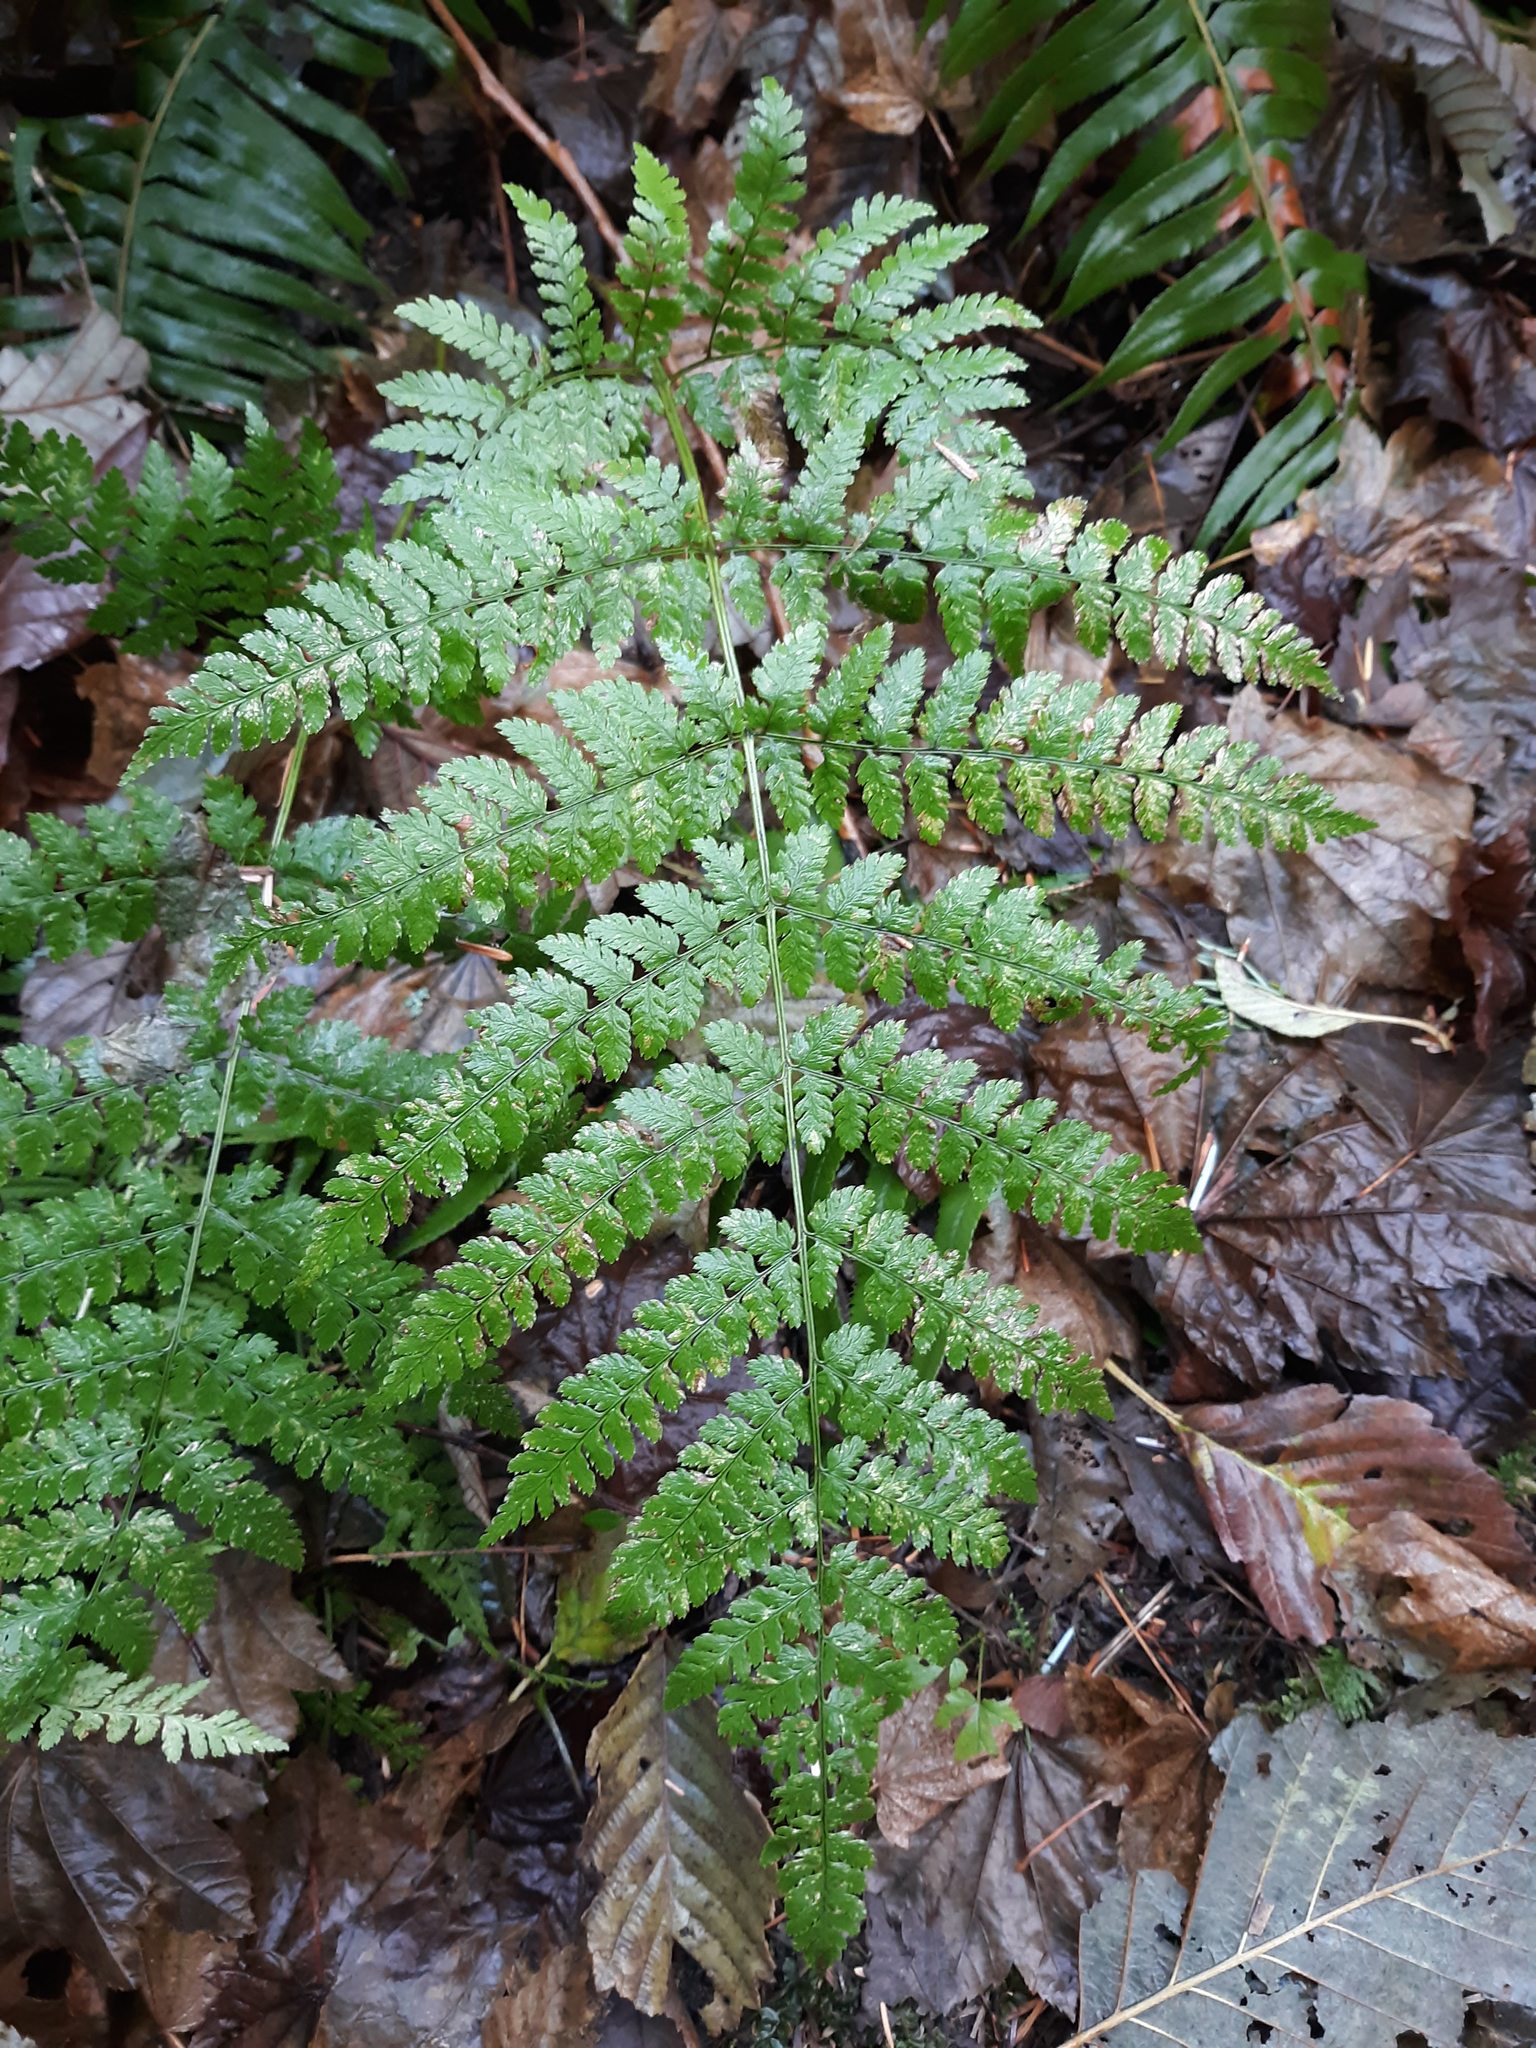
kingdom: Plantae
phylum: Tracheophyta
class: Polypodiopsida
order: Polypodiales
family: Dryopteridaceae
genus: Dryopteris
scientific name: Dryopteris expansa
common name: Northern buckler fern
